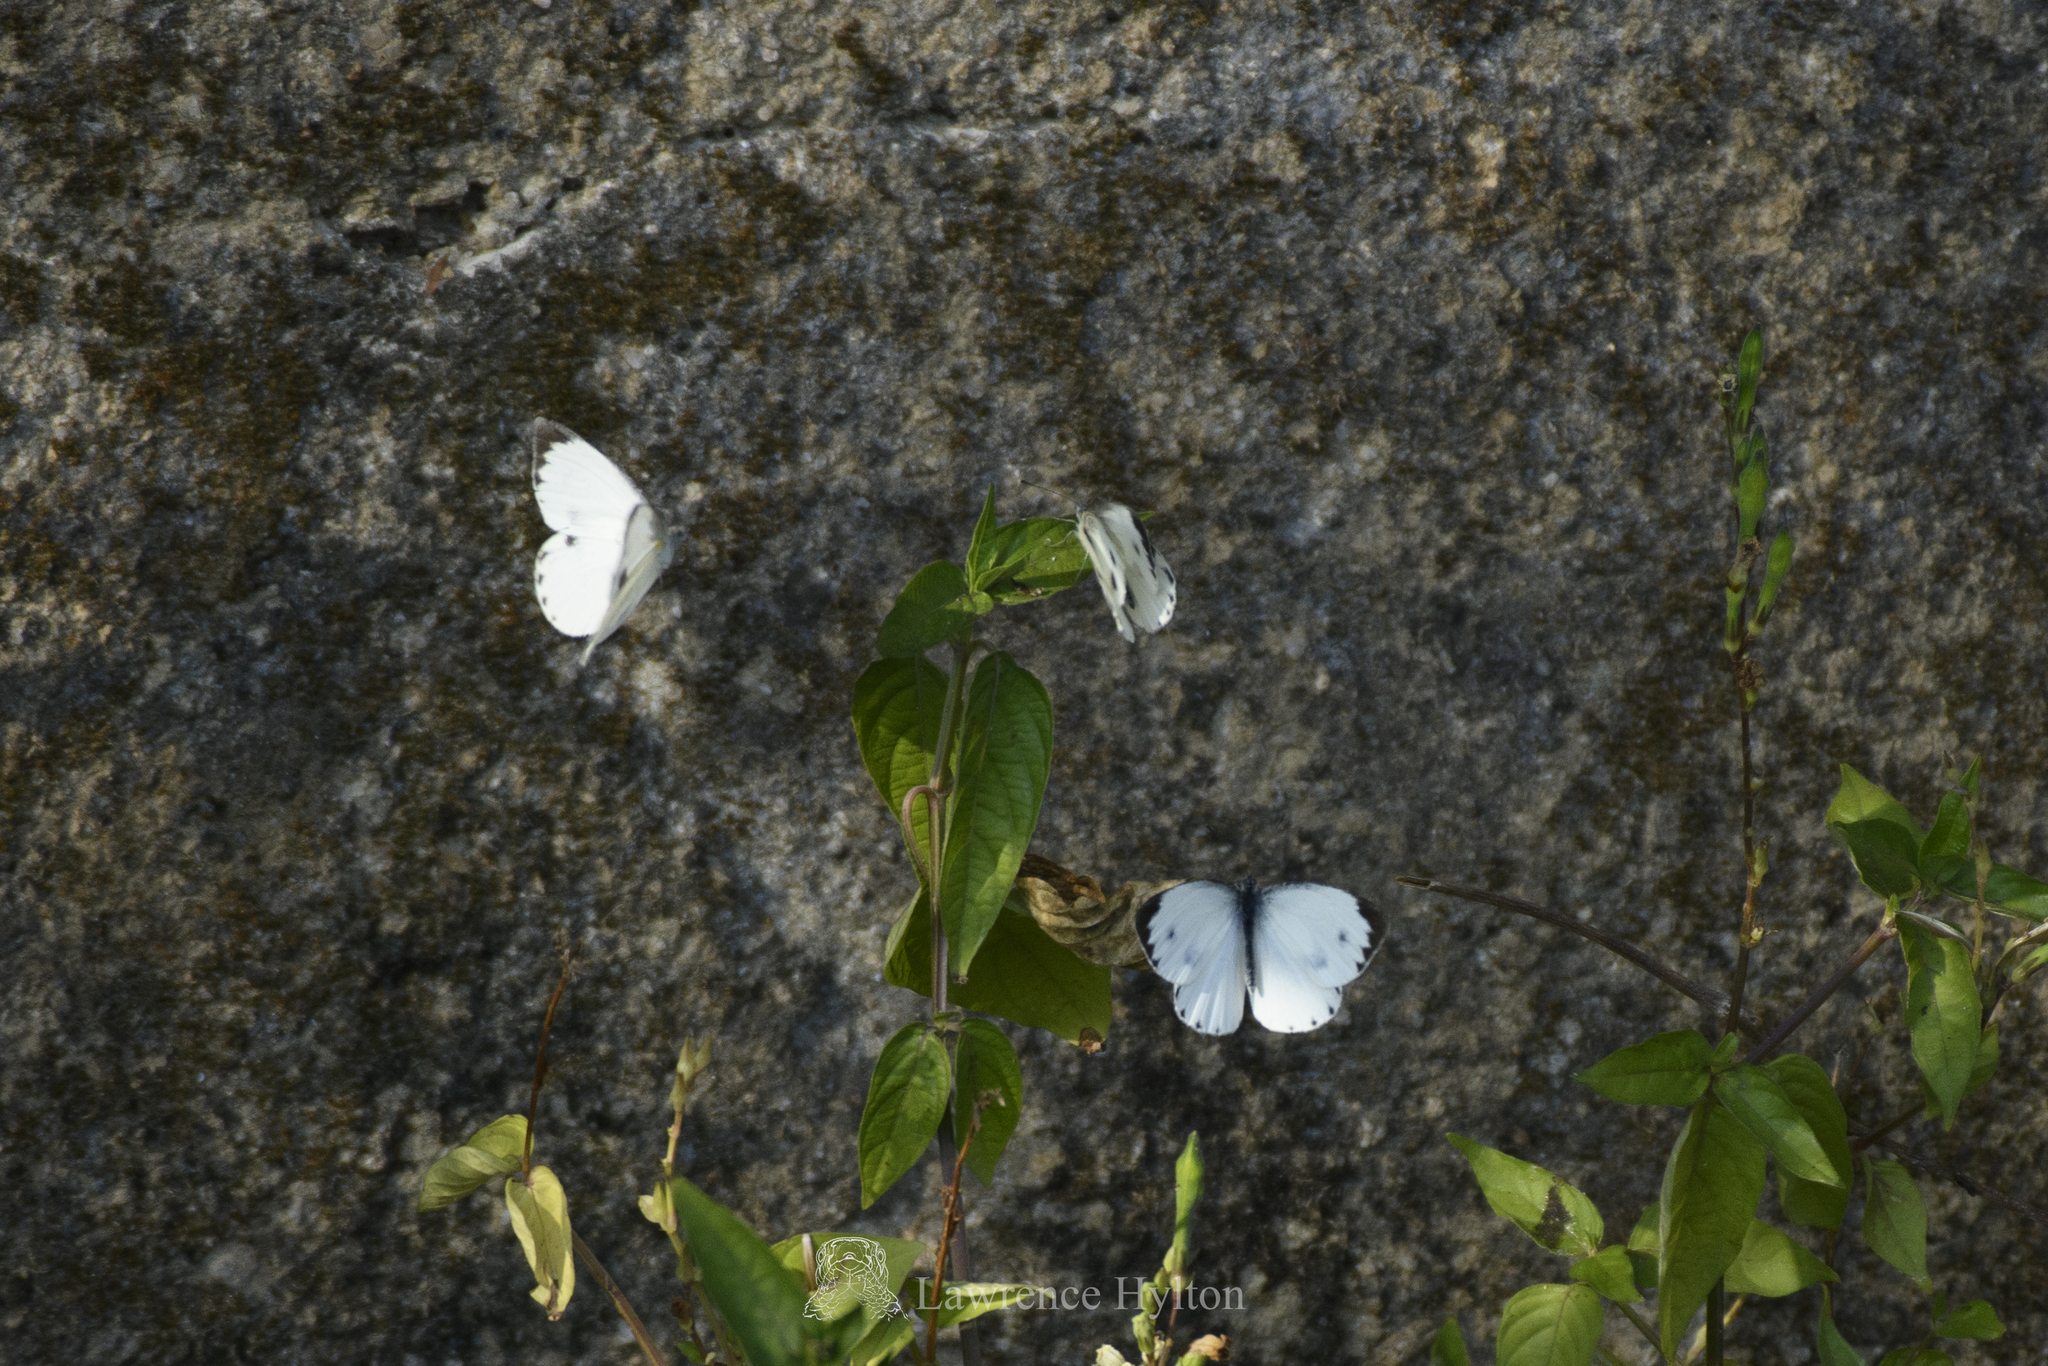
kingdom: Animalia
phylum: Arthropoda
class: Insecta
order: Lepidoptera
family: Pieridae
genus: Pieris
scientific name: Pieris canidia
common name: Indian cabbage white
